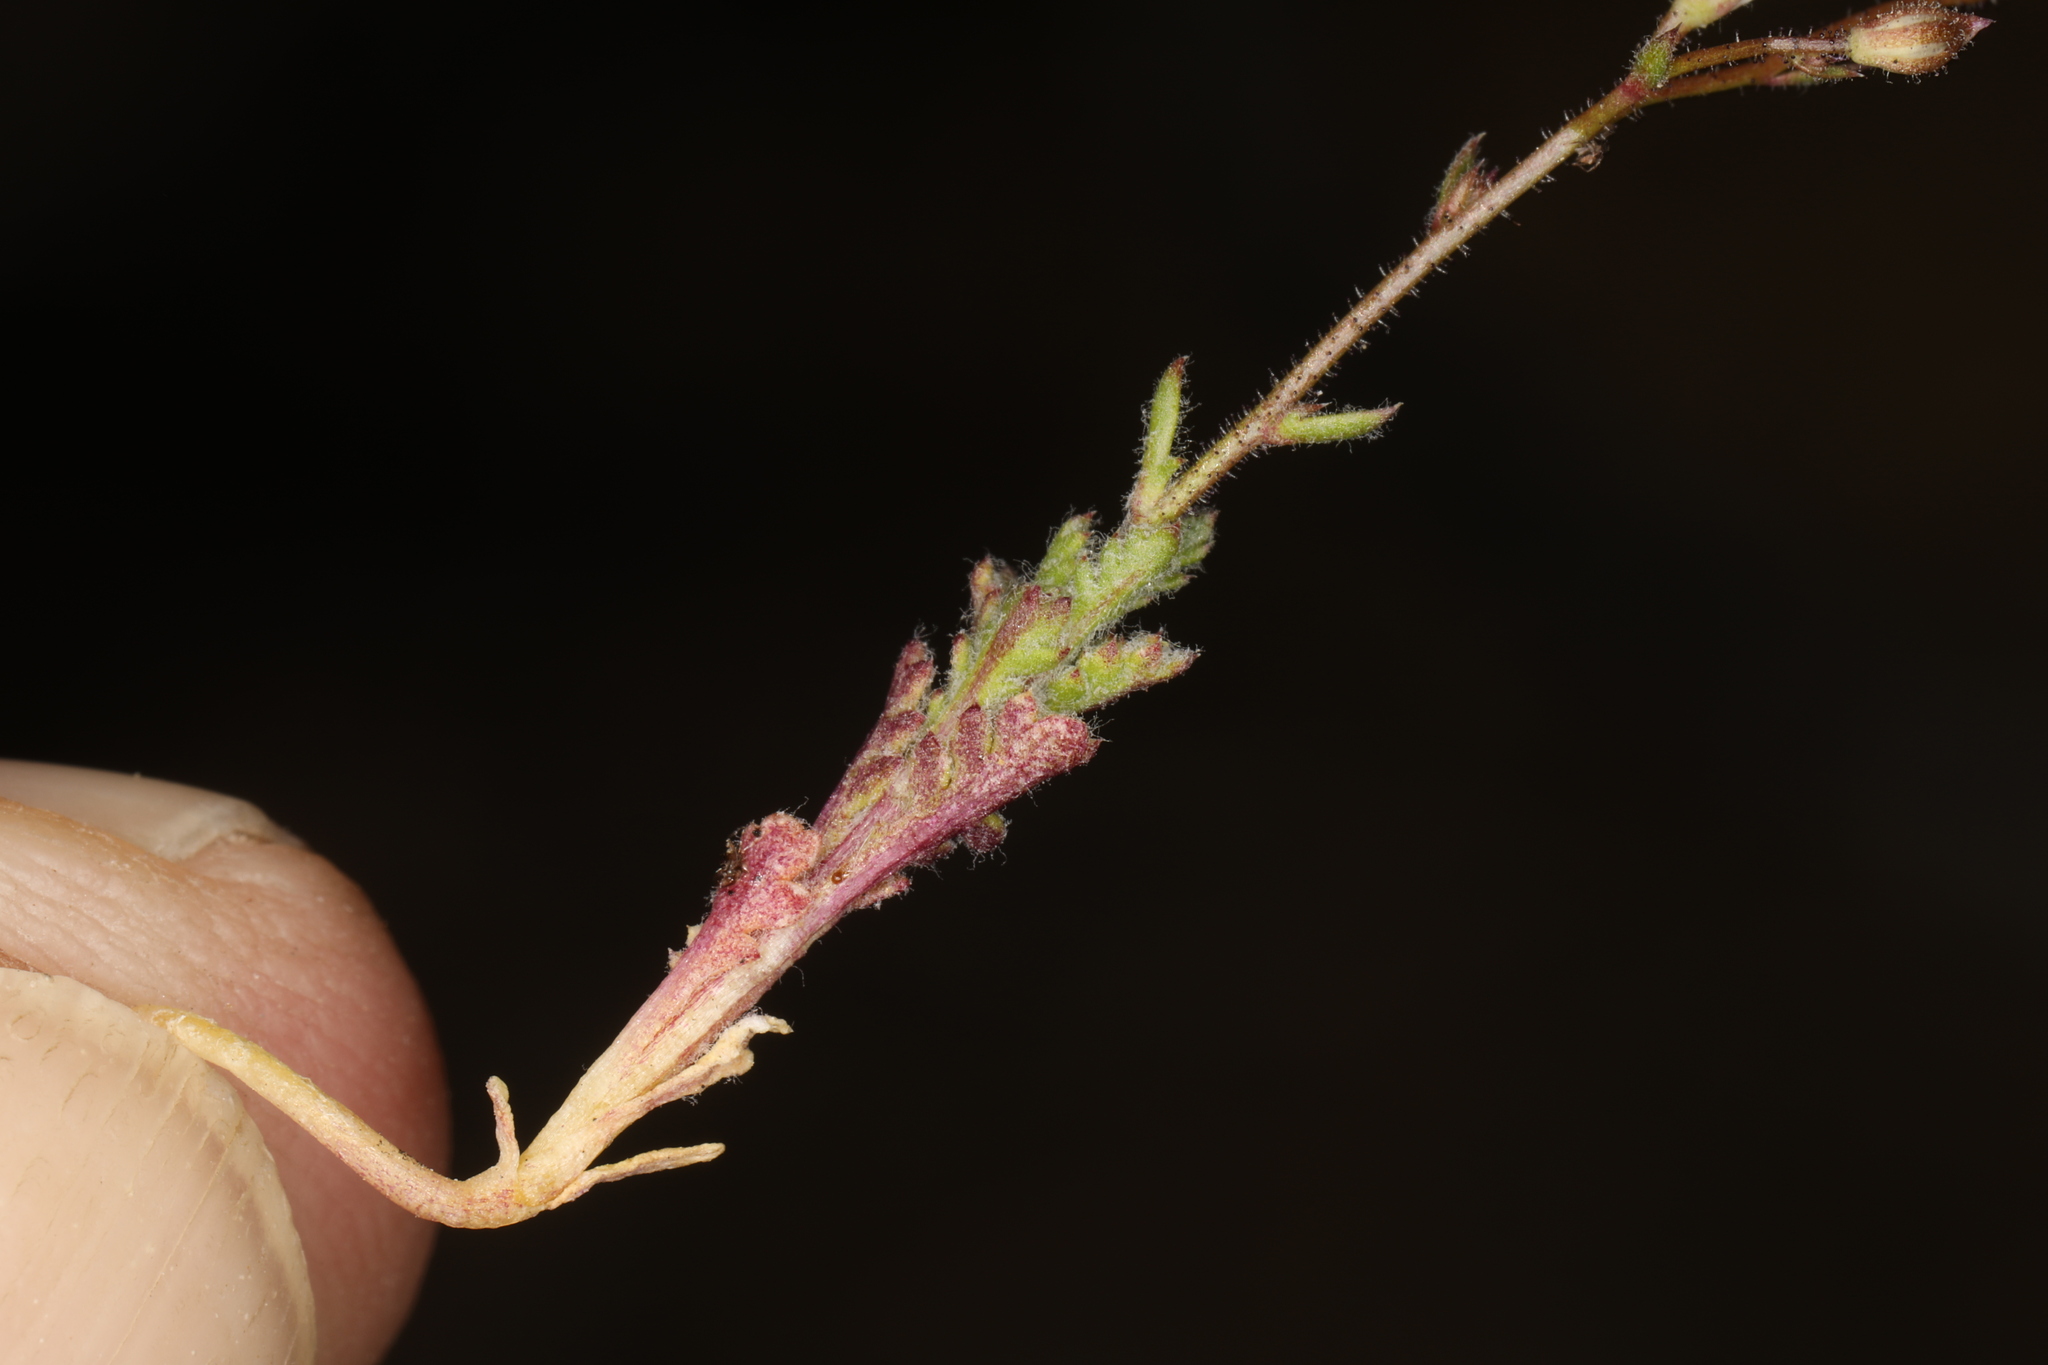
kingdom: Plantae
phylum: Tracheophyta
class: Magnoliopsida
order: Ericales
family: Polemoniaceae
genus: Gilia
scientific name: Gilia ophthalmoides
